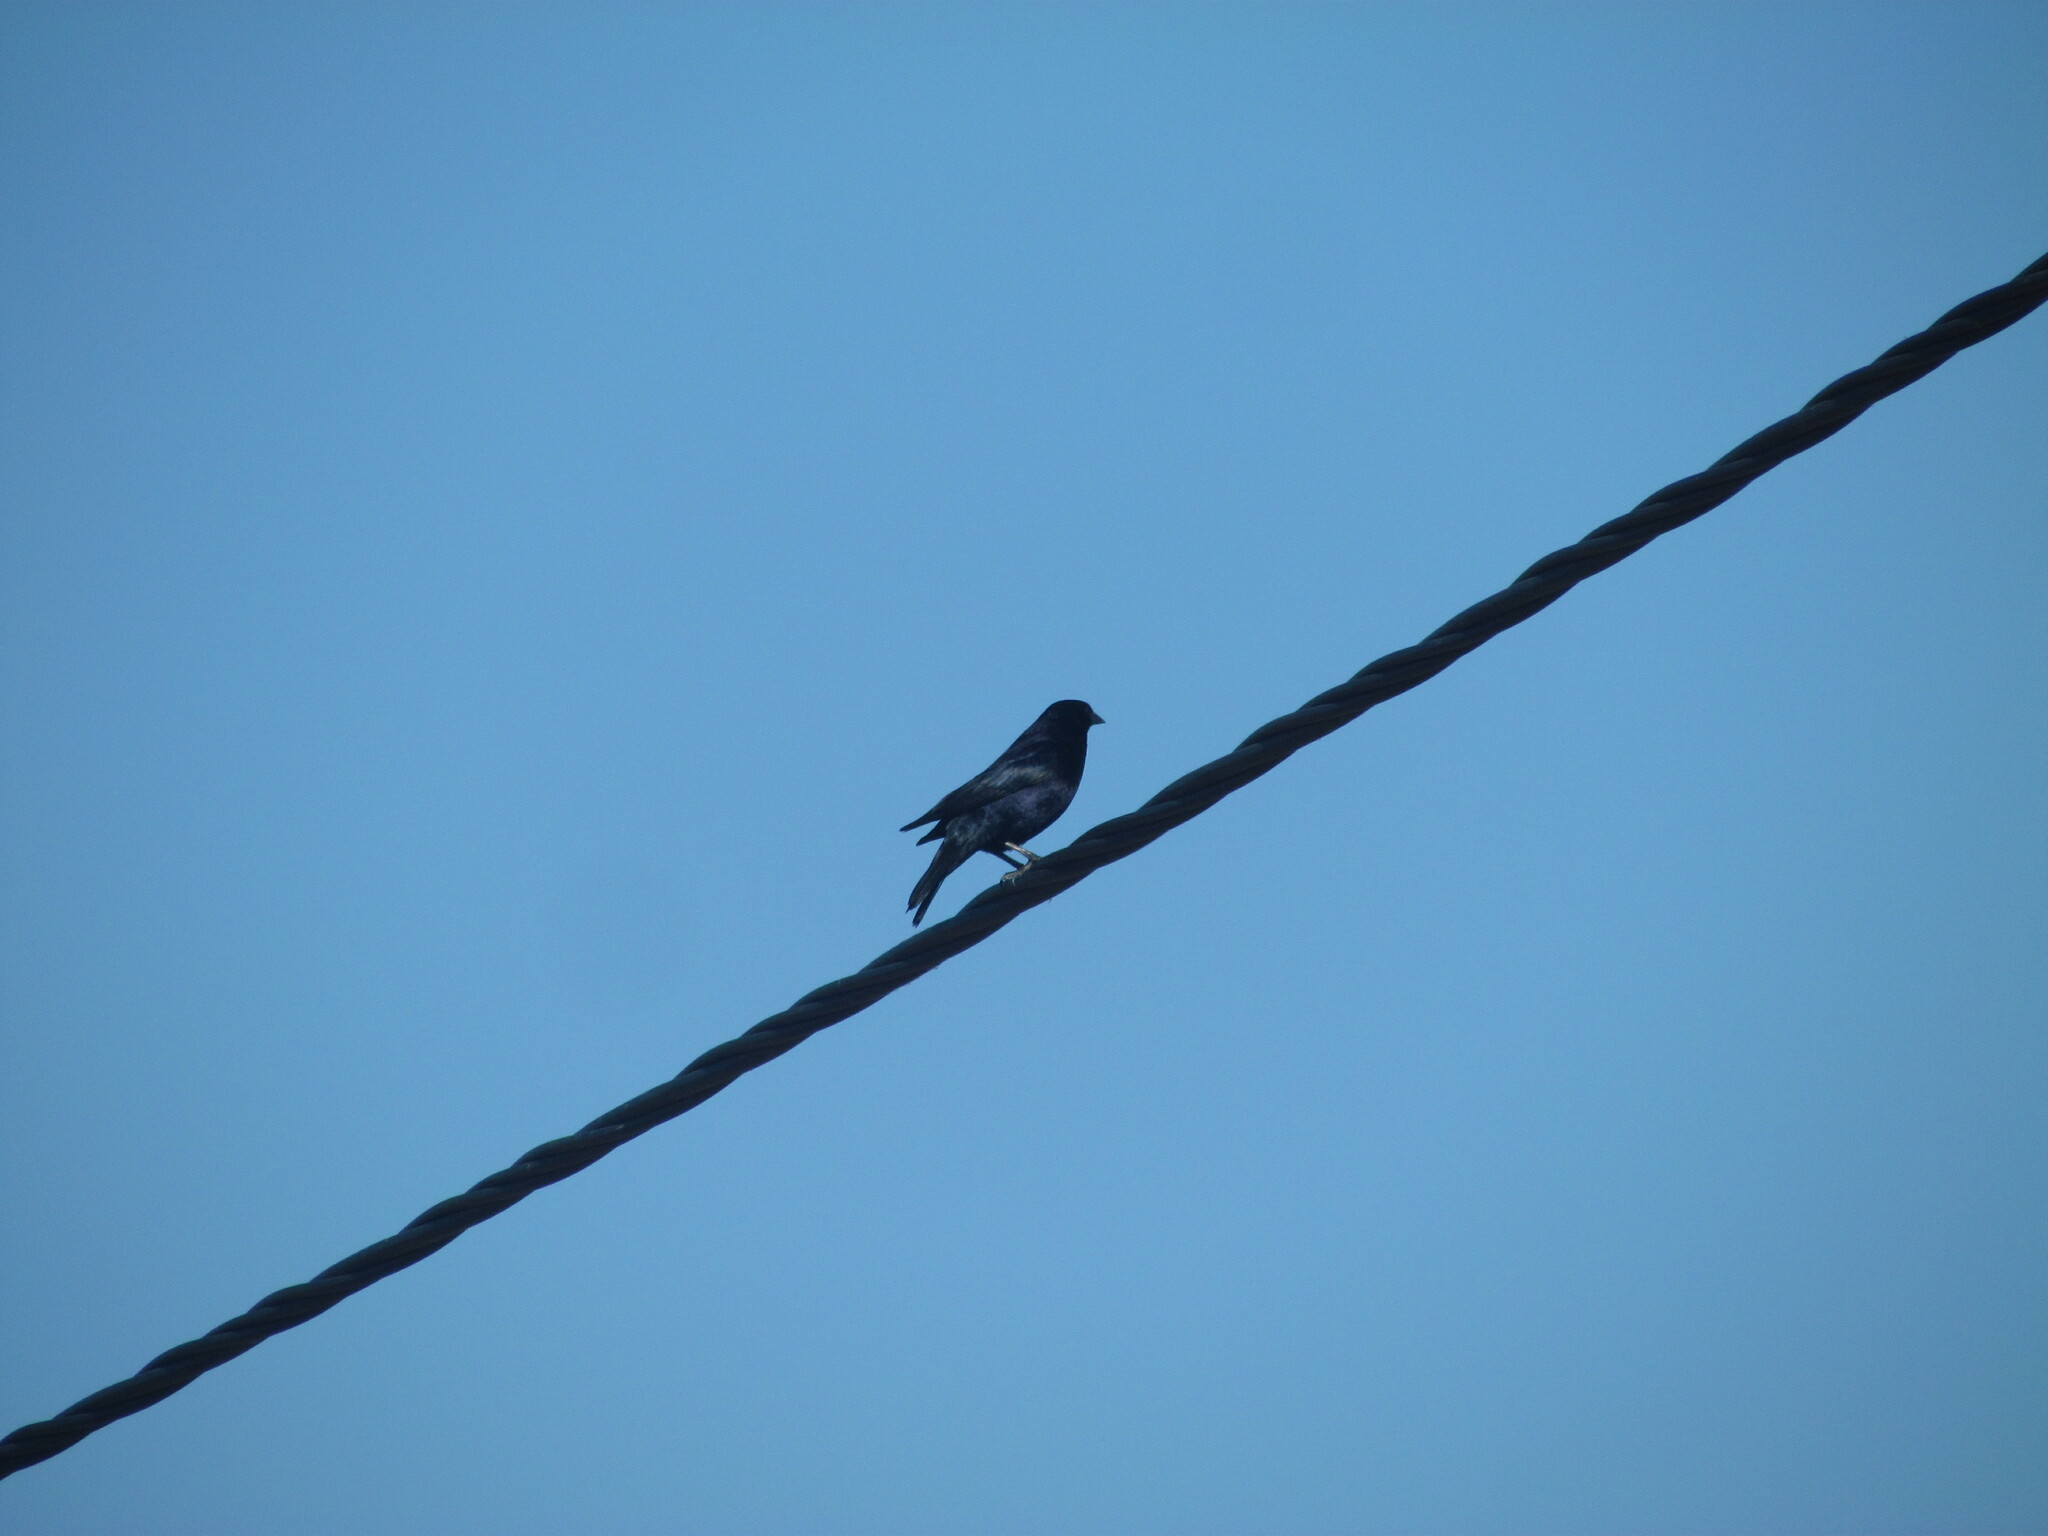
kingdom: Animalia
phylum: Chordata
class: Aves
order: Passeriformes
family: Icteridae
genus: Molothrus
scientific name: Molothrus bonariensis
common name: Shiny cowbird
